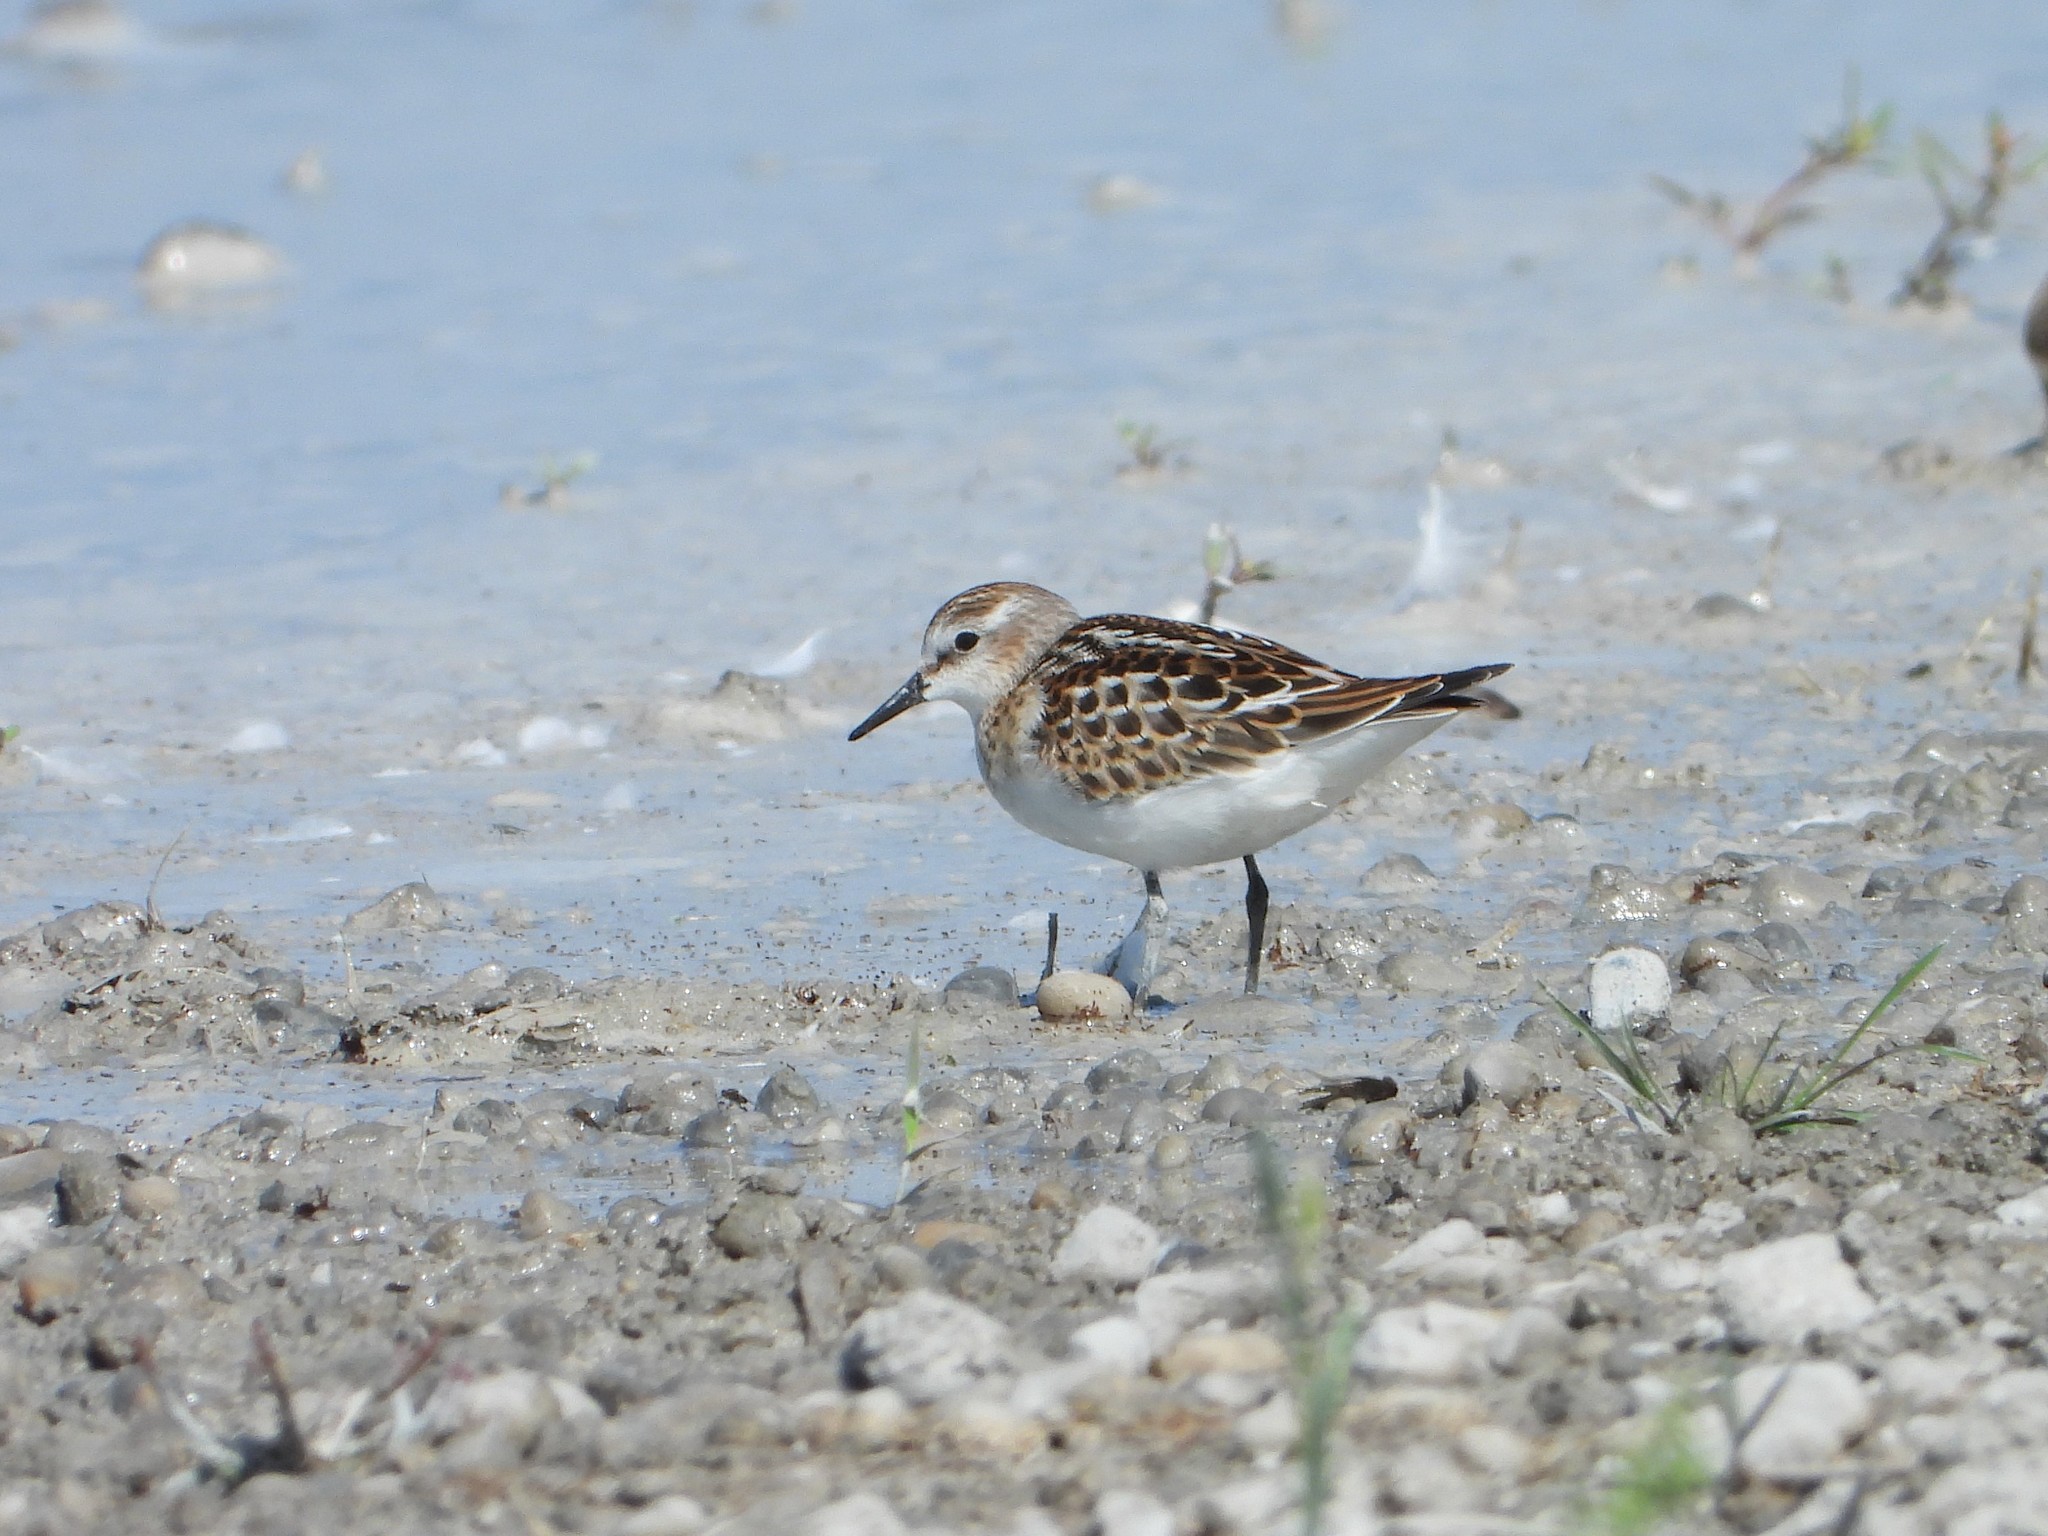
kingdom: Animalia
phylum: Chordata
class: Aves
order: Charadriiformes
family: Scolopacidae
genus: Calidris
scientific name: Calidris minuta
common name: Little stint
